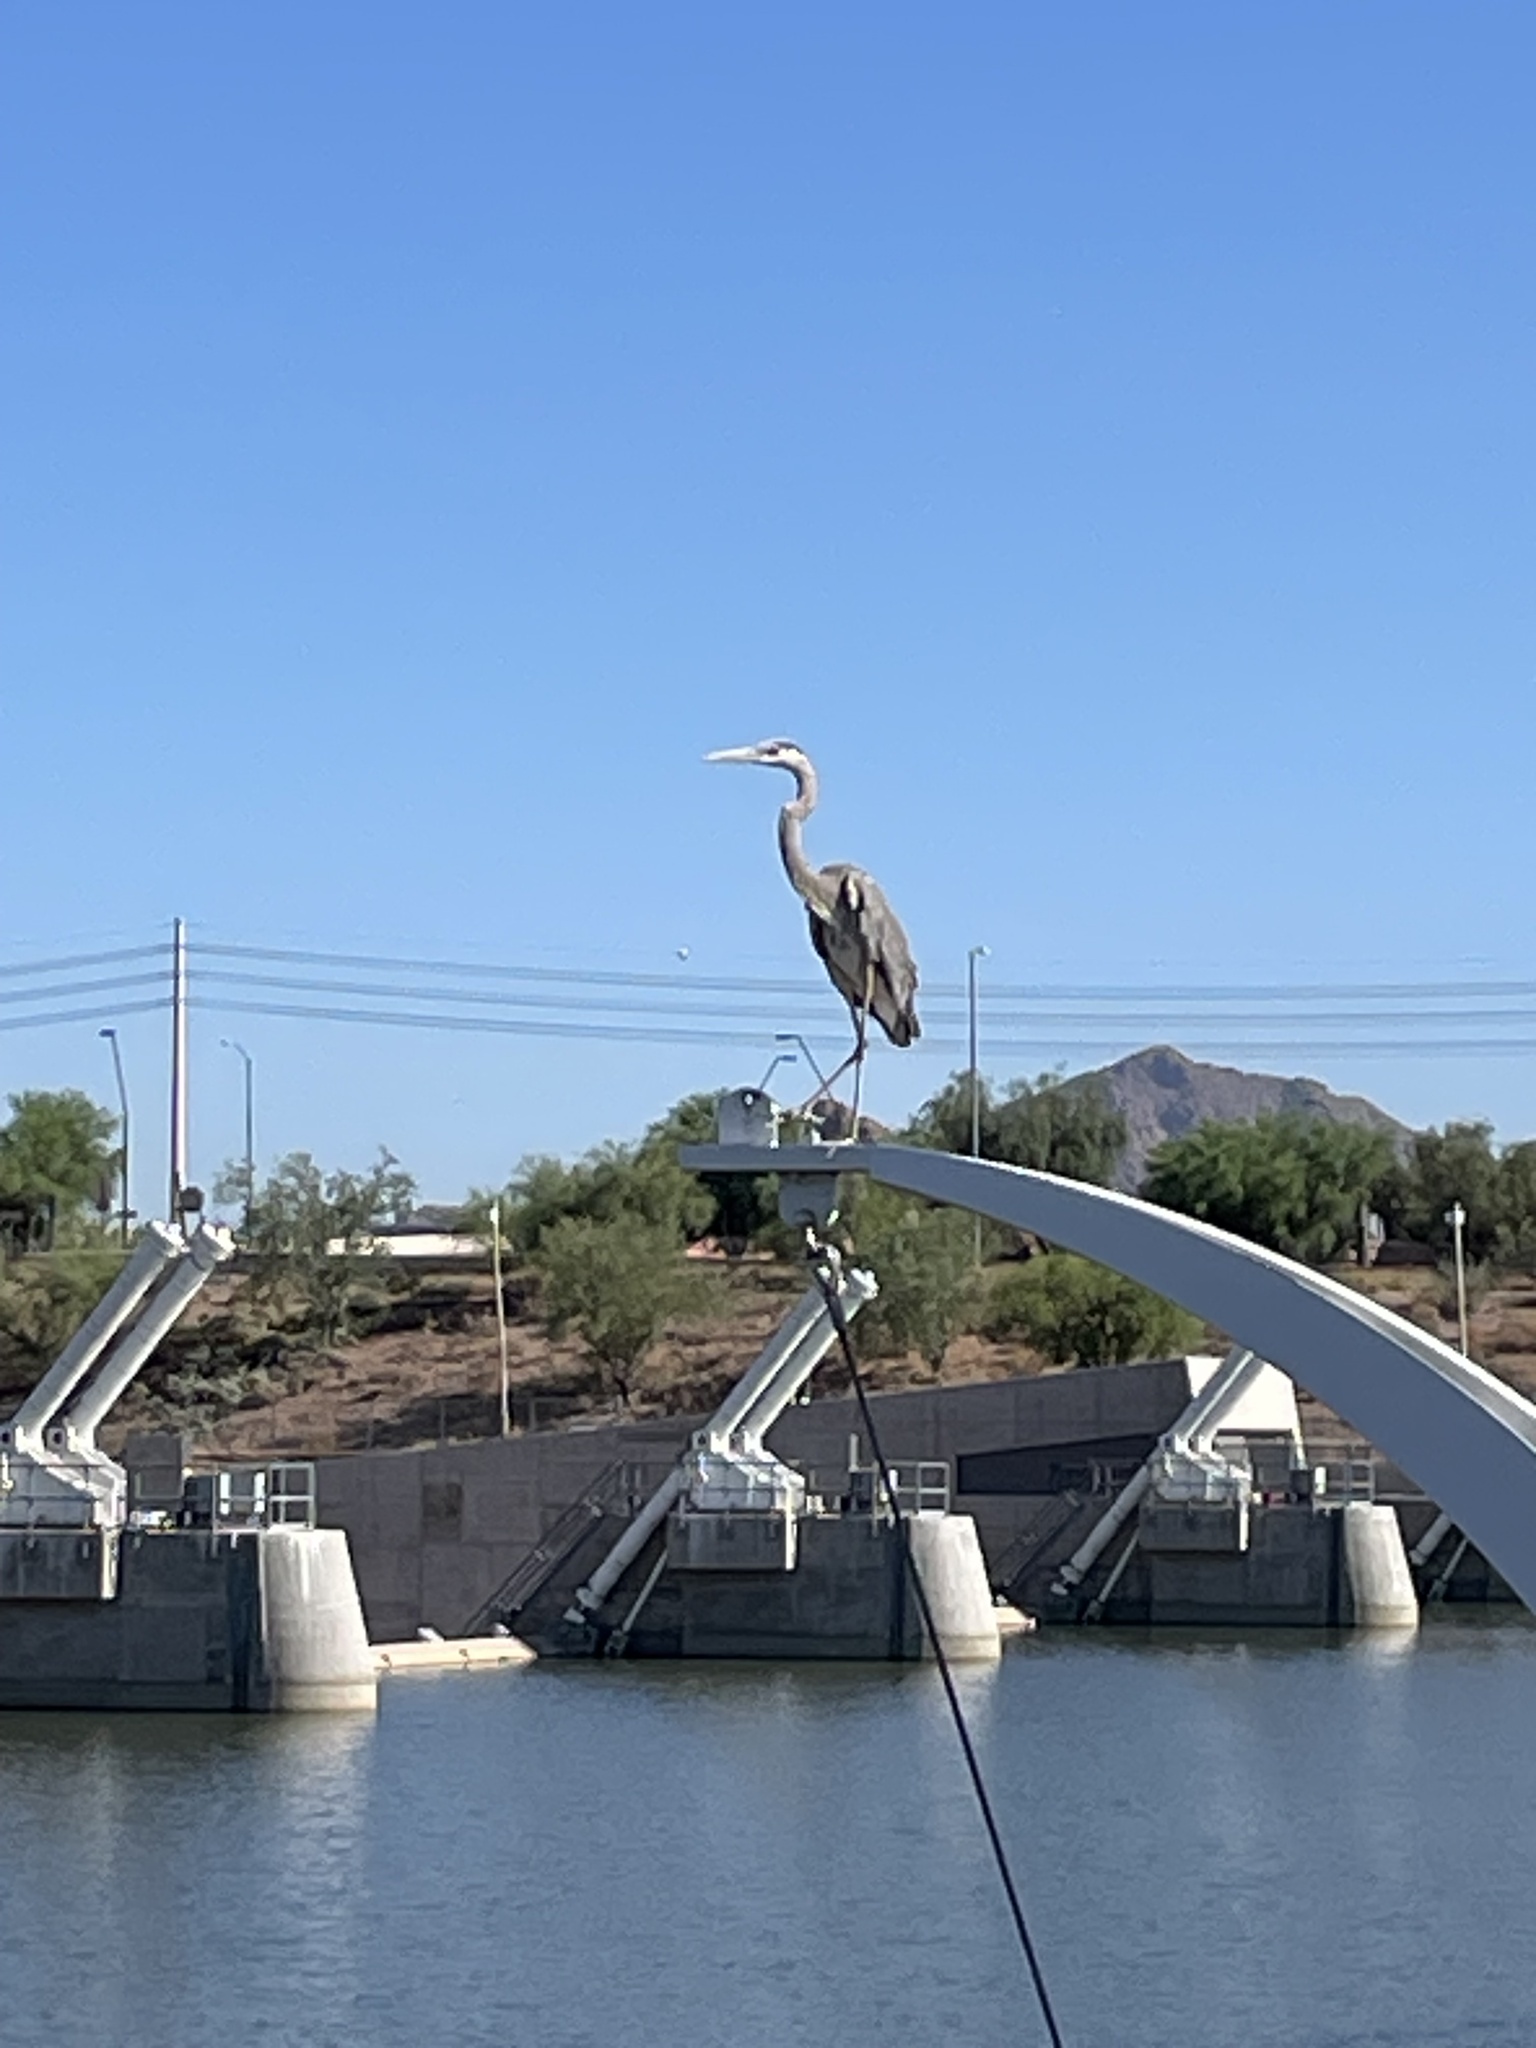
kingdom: Animalia
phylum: Chordata
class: Aves
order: Pelecaniformes
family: Ardeidae
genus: Ardea
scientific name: Ardea herodias
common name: Great blue heron
